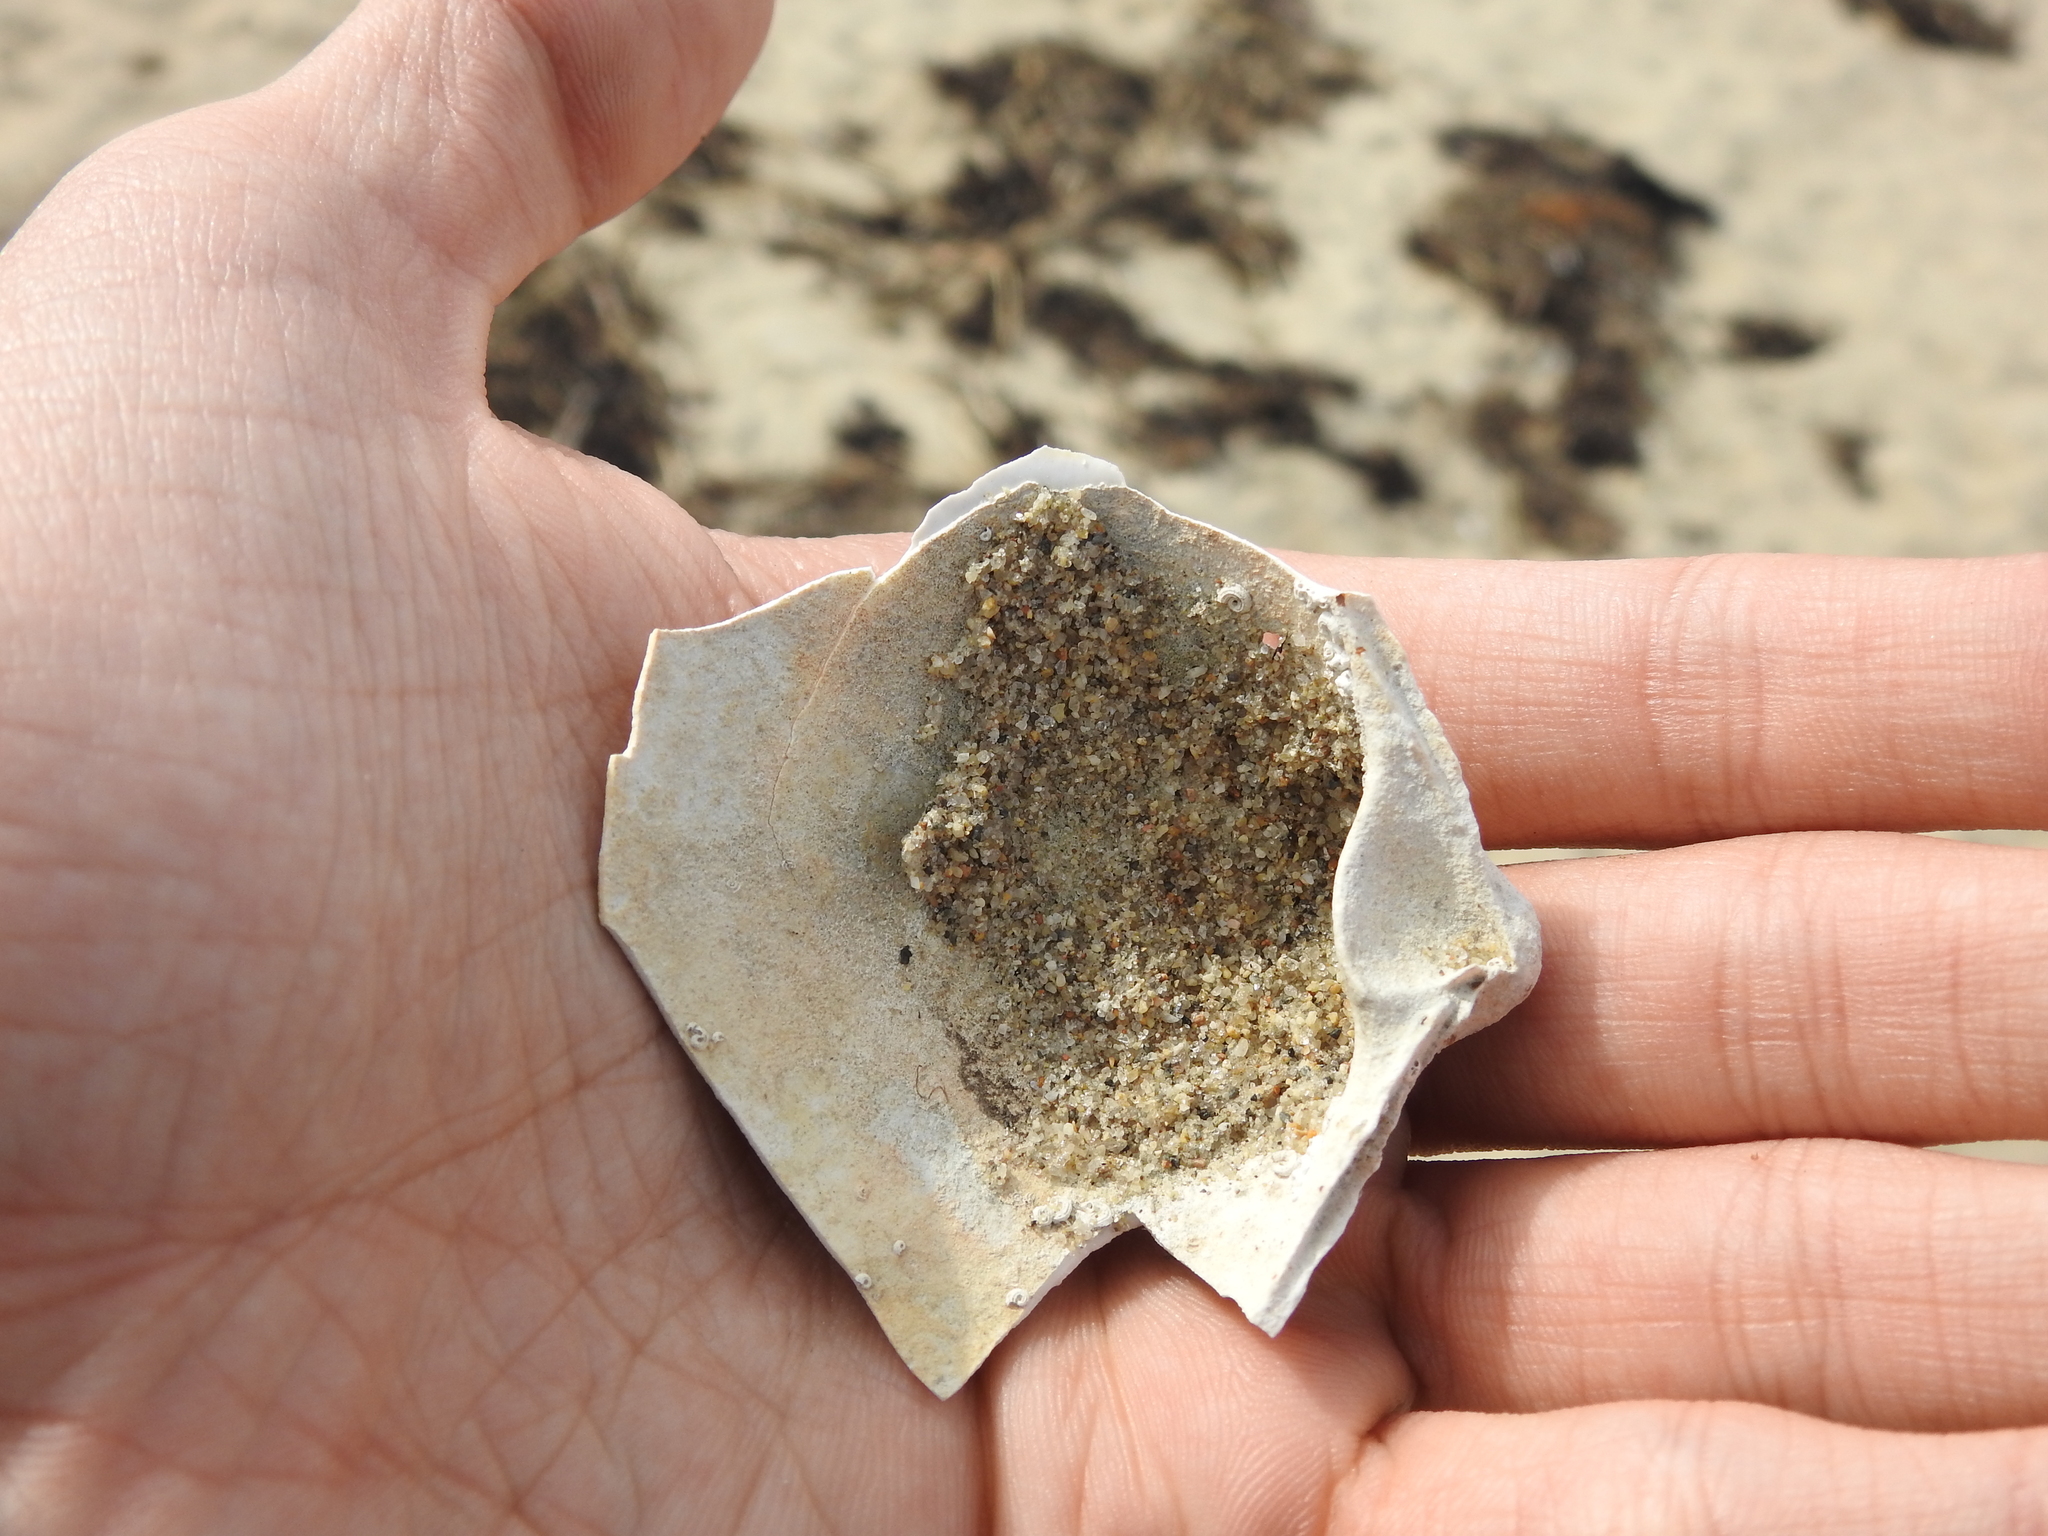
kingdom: Animalia
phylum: Mollusca
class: Bivalvia
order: Venerida
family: Mactridae
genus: Spisula
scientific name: Spisula solidissima
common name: Atlantic surf clam
